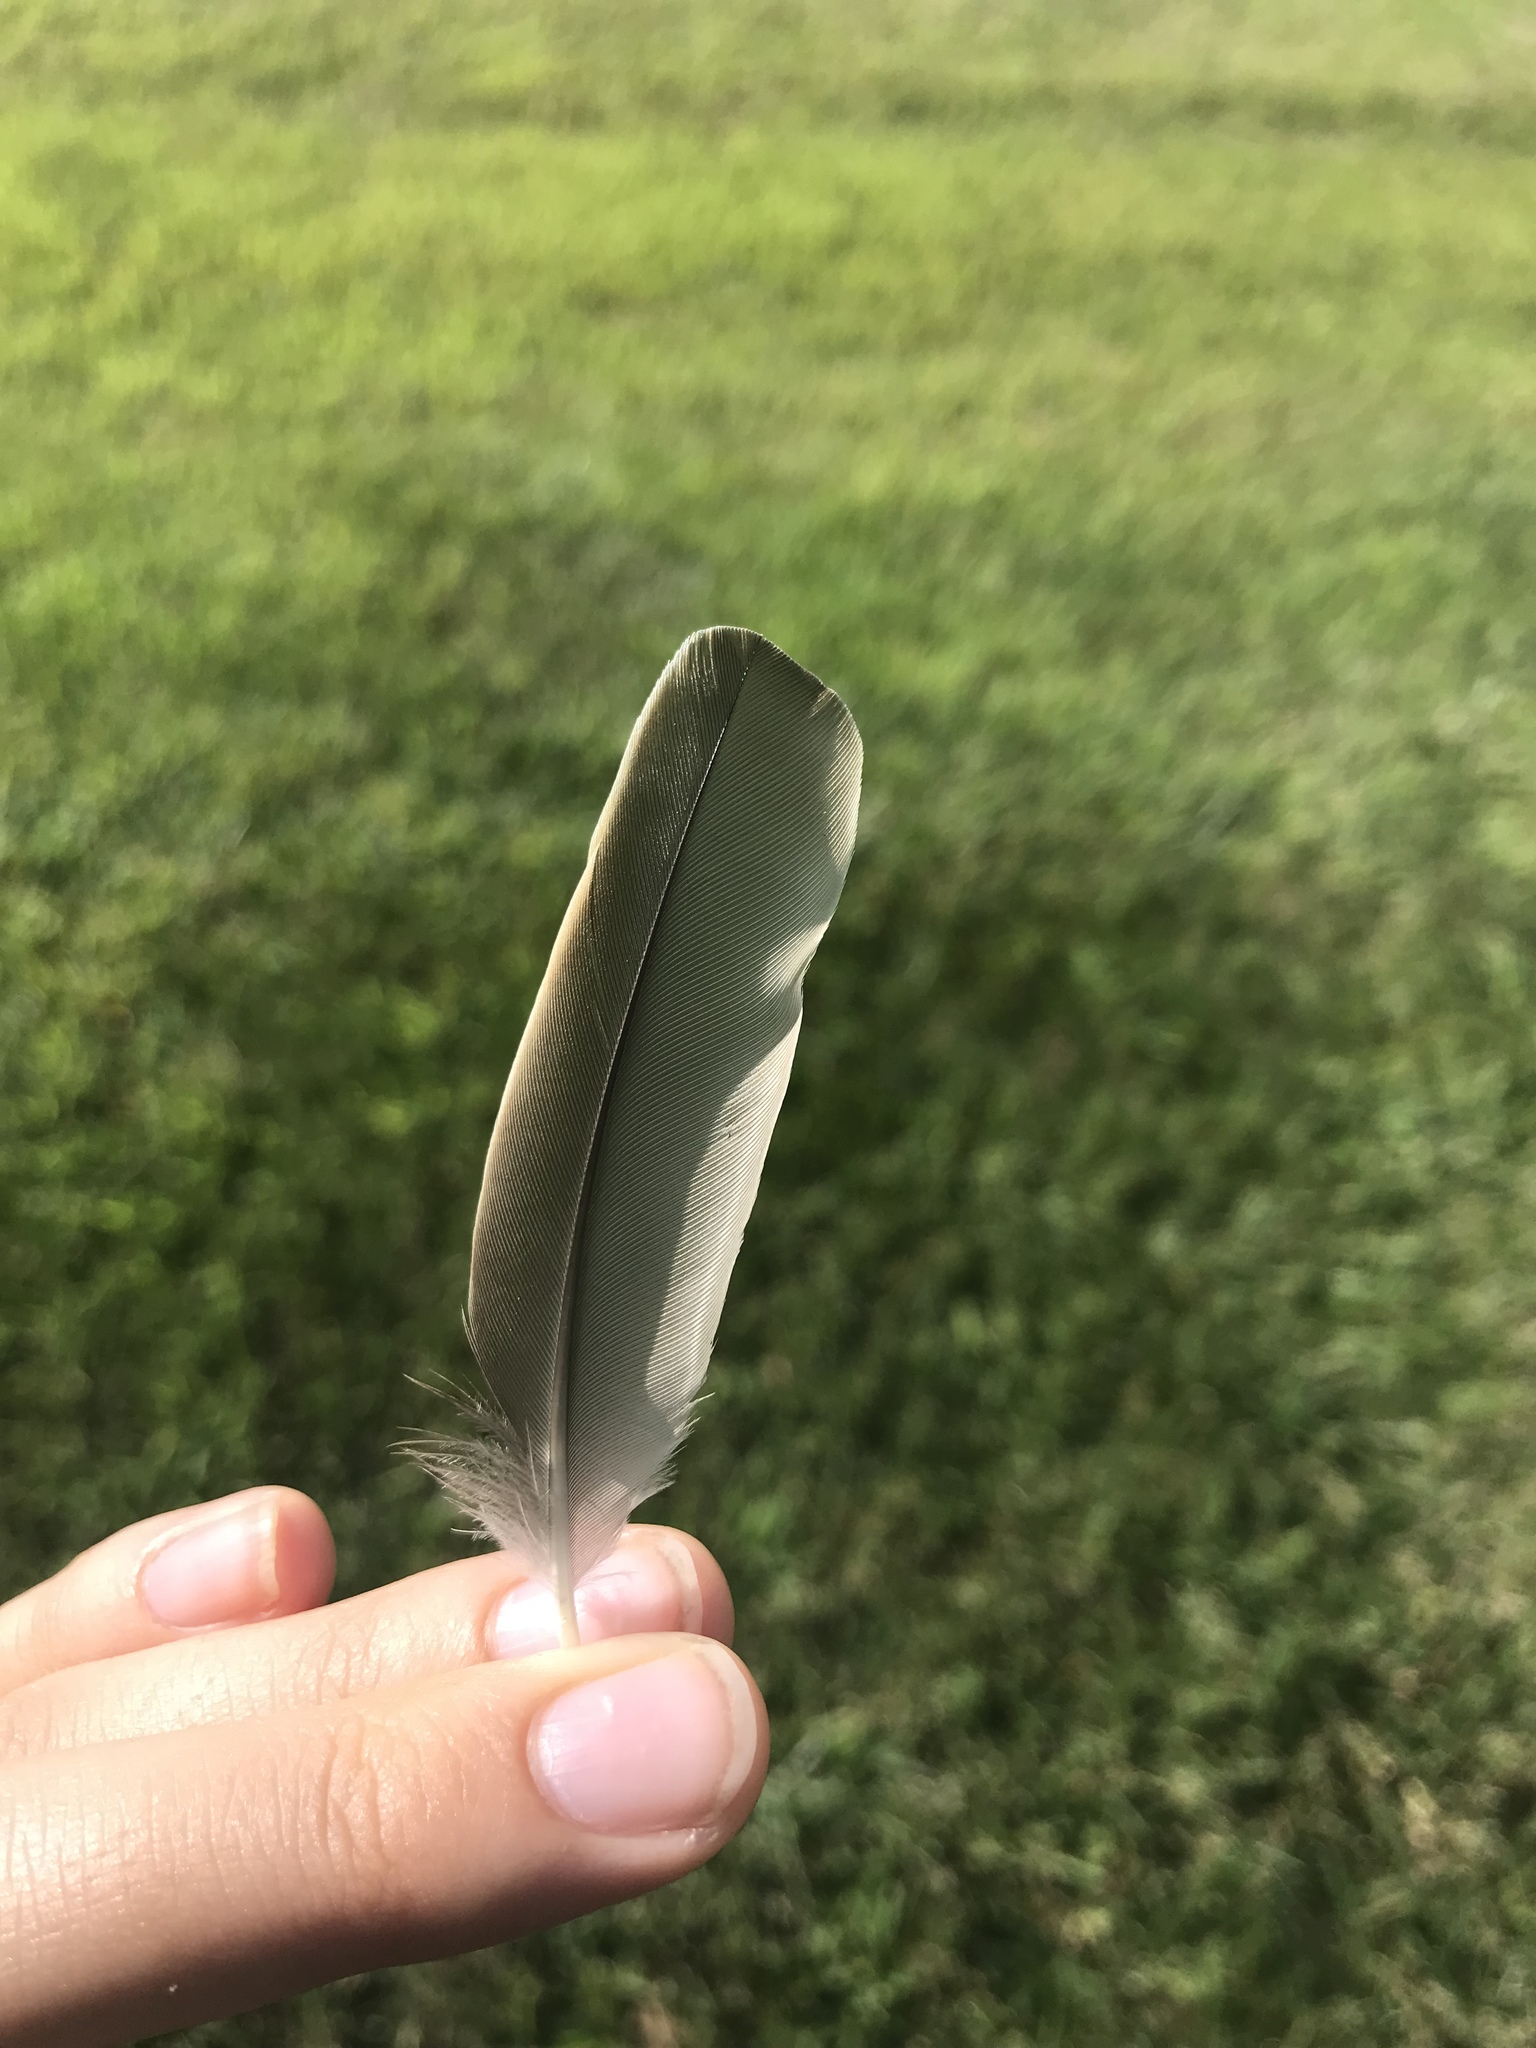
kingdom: Animalia
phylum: Chordata
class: Aves
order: Passeriformes
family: Sturnidae
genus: Sturnus
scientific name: Sturnus vulgaris
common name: Common starling
